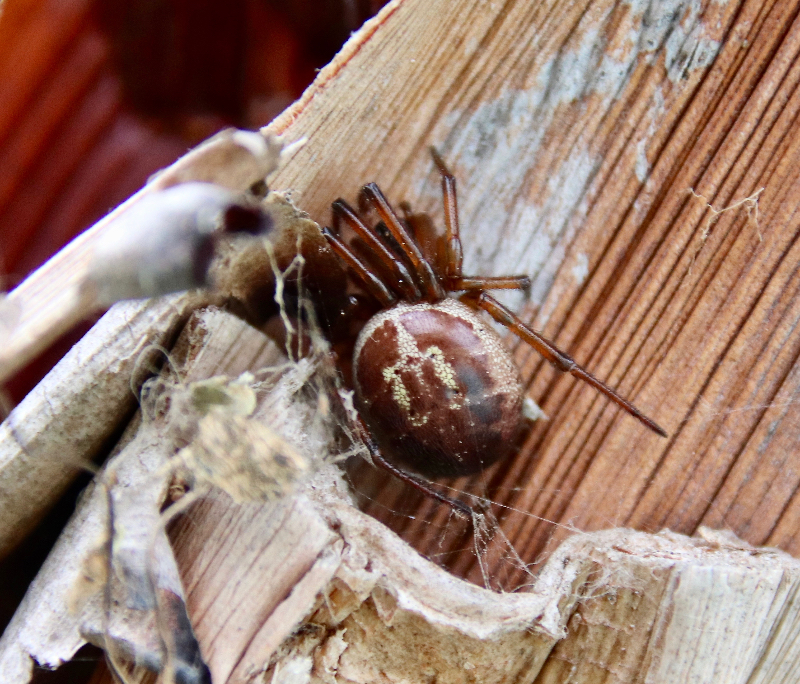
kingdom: Animalia
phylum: Arthropoda
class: Arachnida
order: Araneae
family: Theridiidae
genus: Steatoda
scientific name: Steatoda nobilis
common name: Cobweb weaver
